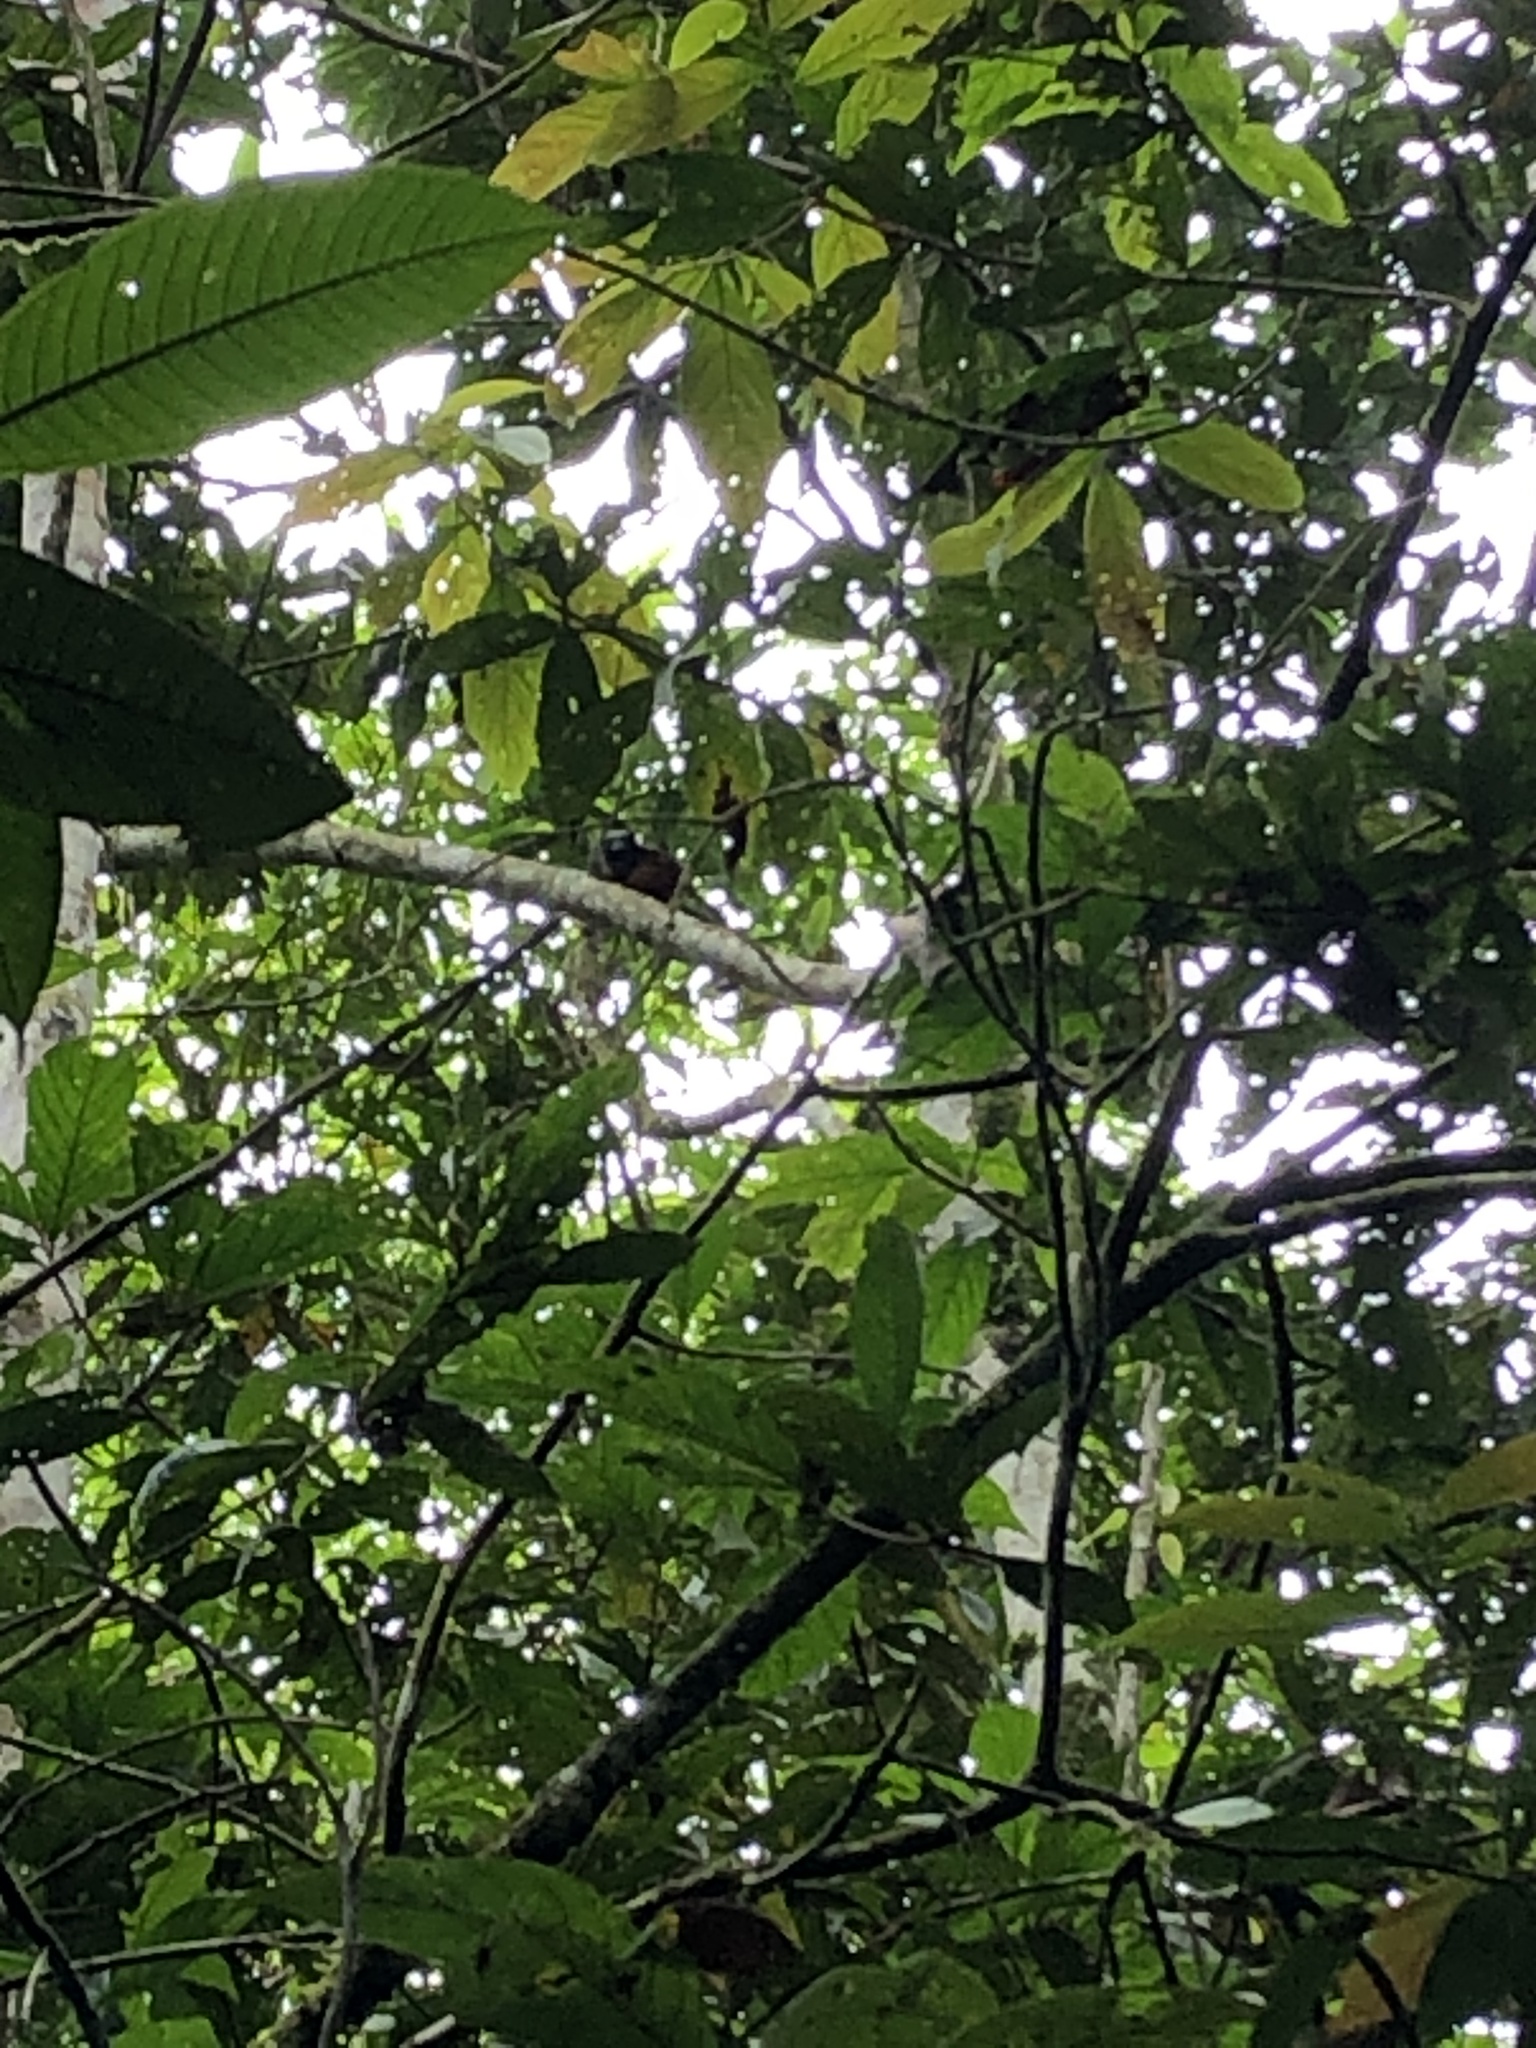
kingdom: Animalia
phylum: Chordata
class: Mammalia
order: Primates
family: Callitrichidae
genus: Leontocebus
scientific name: Leontocebus weddelli
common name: Weddell's saddle-back tamarin
